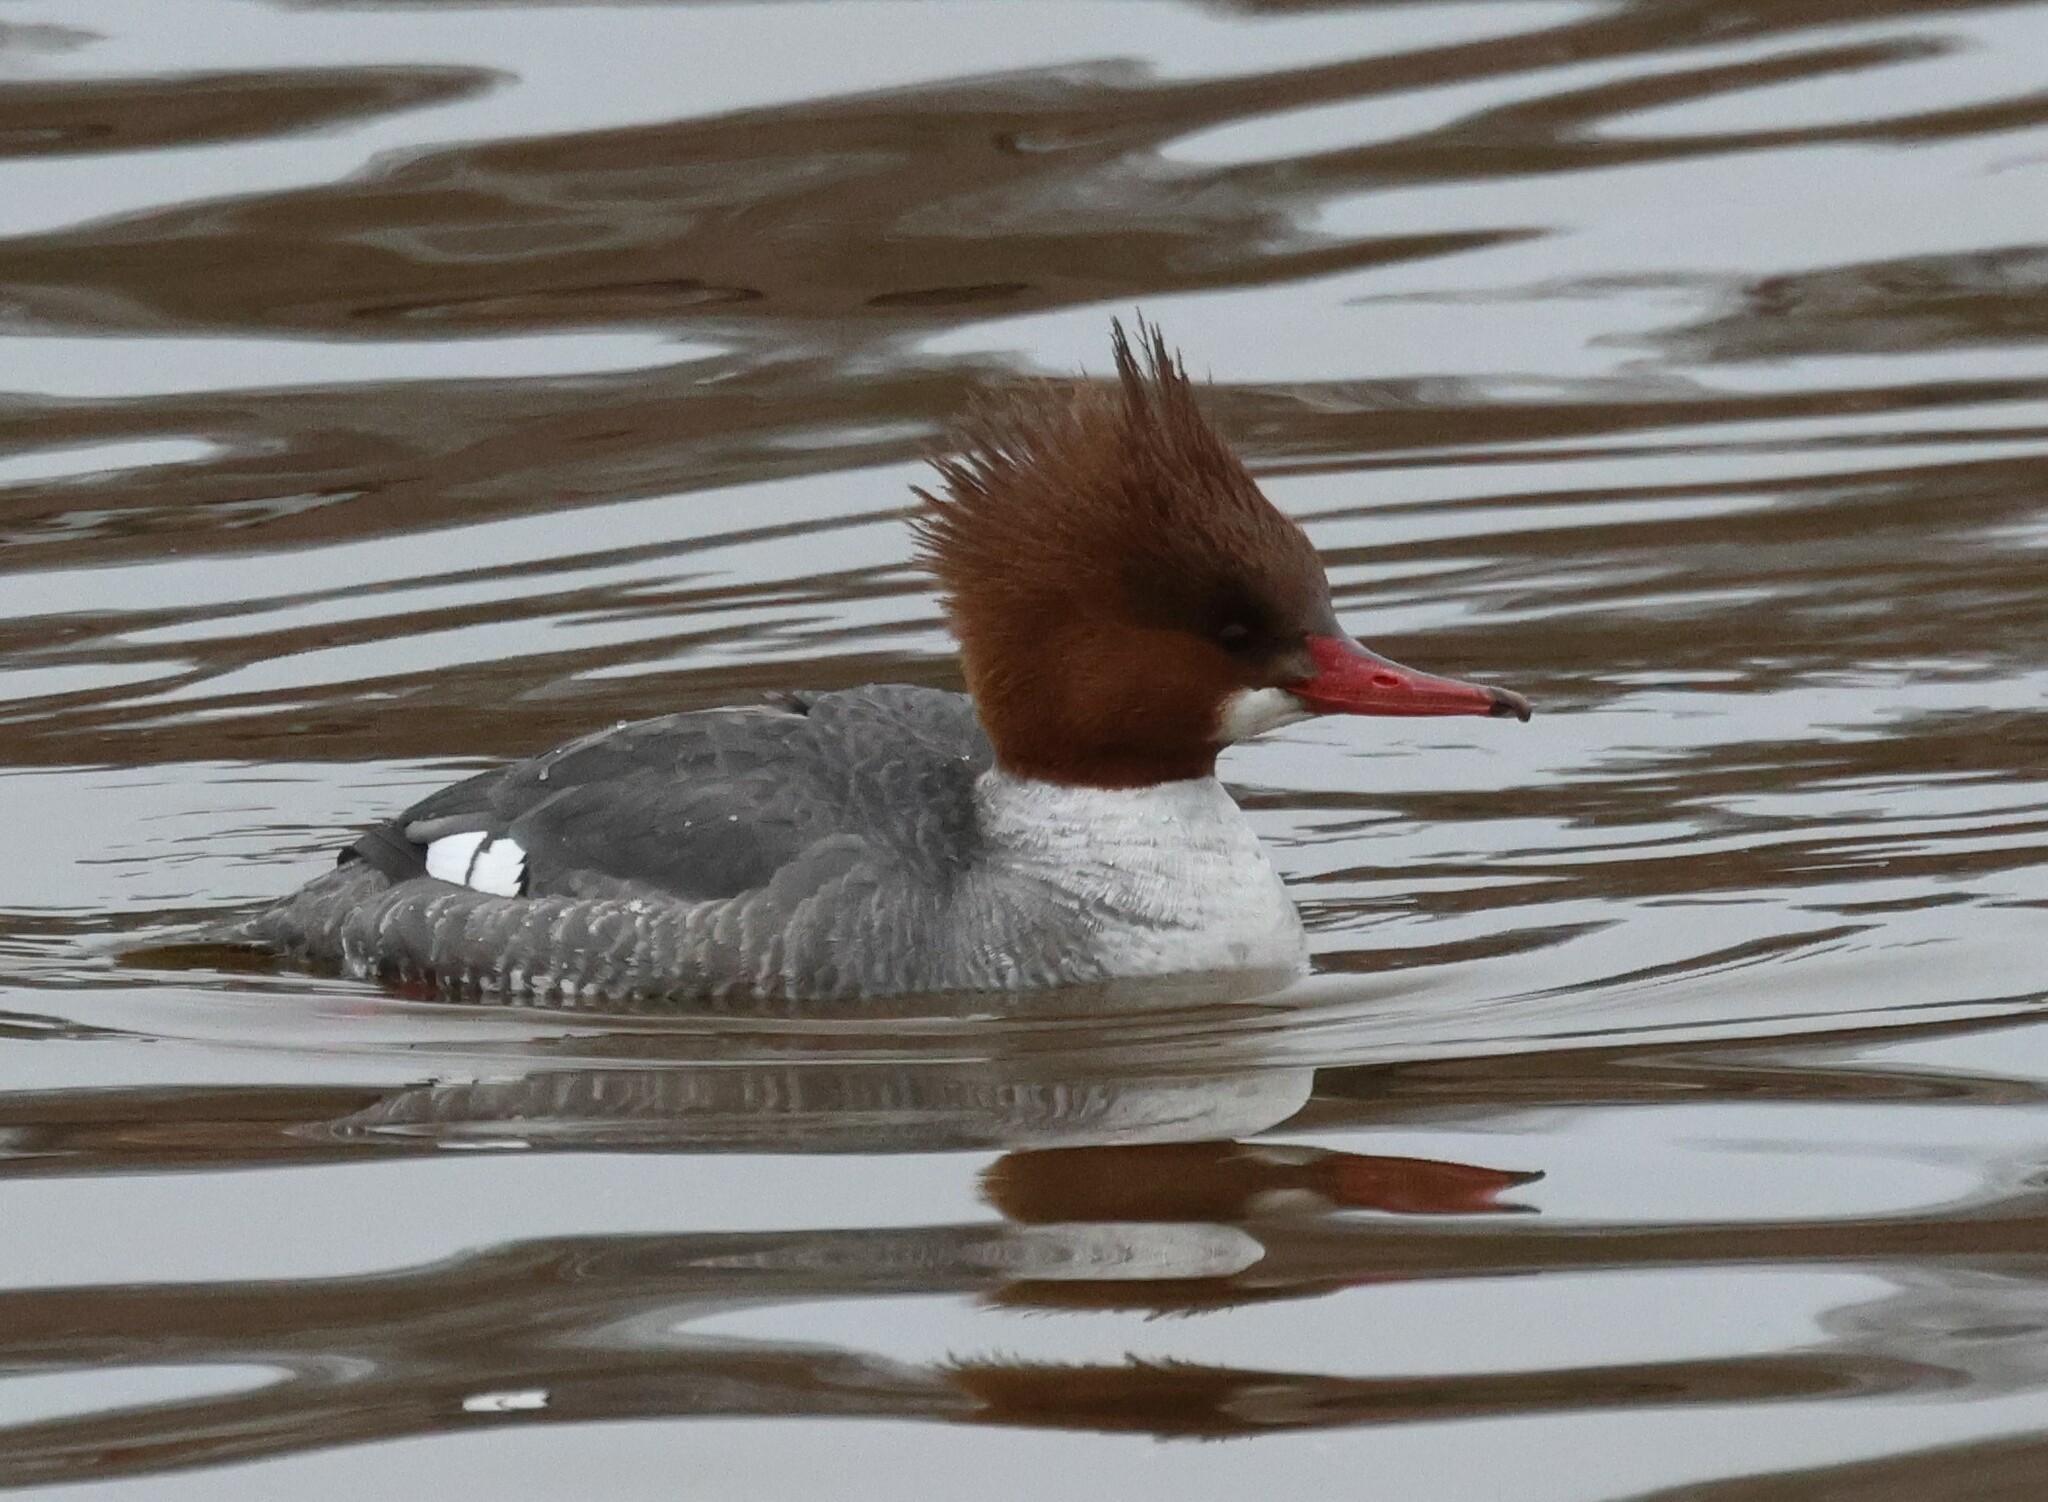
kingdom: Animalia
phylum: Chordata
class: Aves
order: Anseriformes
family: Anatidae
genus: Mergus
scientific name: Mergus merganser
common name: Common merganser
